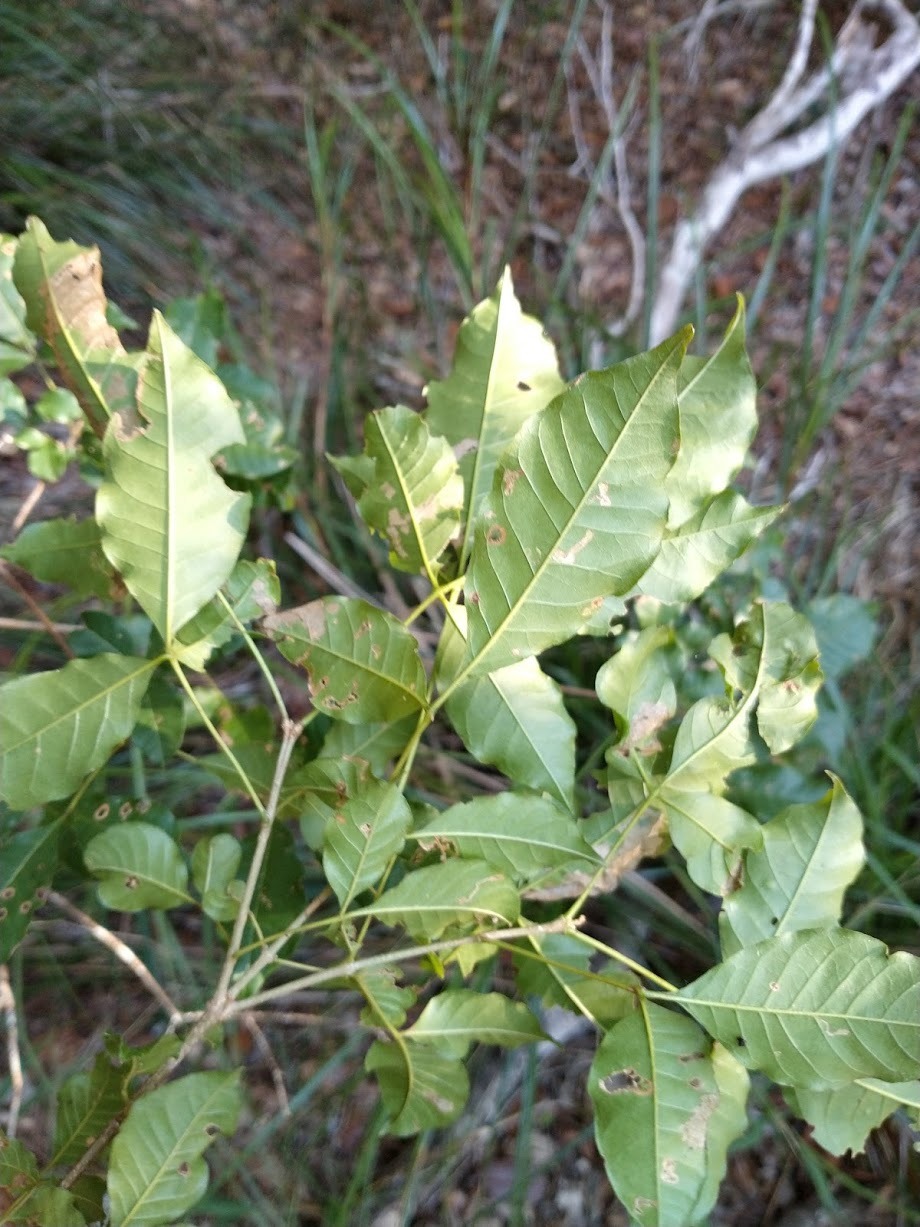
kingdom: Plantae
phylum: Tracheophyta
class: Magnoliopsida
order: Lamiales
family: Lamiaceae
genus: Vitex
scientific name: Vitex melicopea
